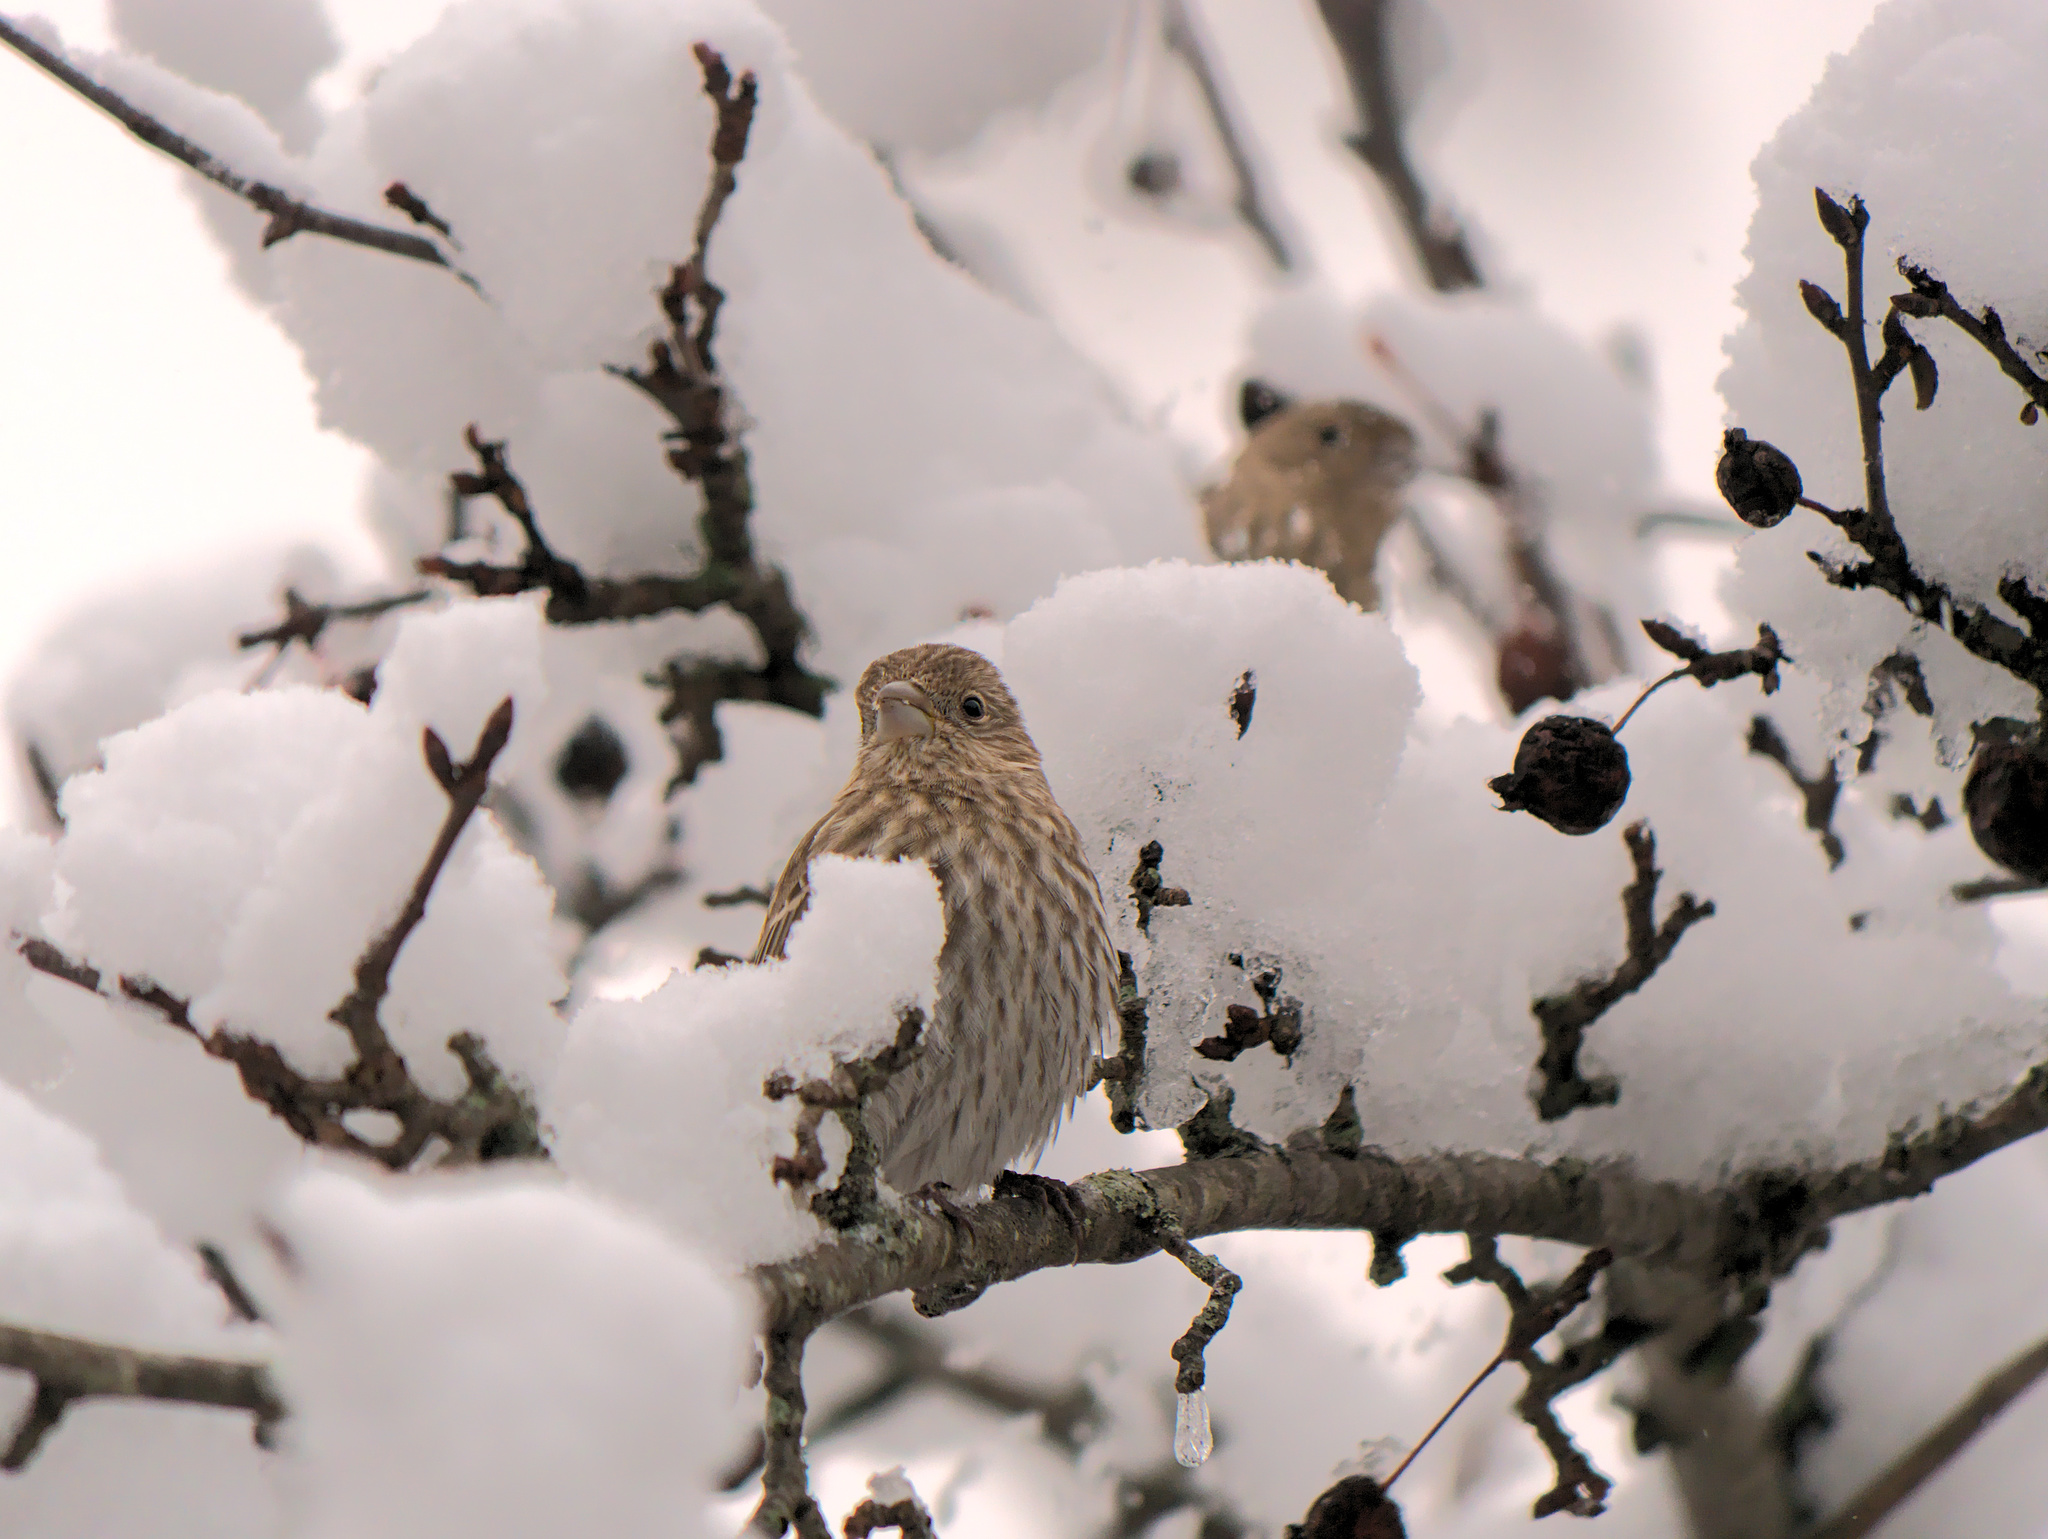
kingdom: Animalia
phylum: Chordata
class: Aves
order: Passeriformes
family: Fringillidae
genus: Haemorhous
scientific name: Haemorhous mexicanus
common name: House finch
